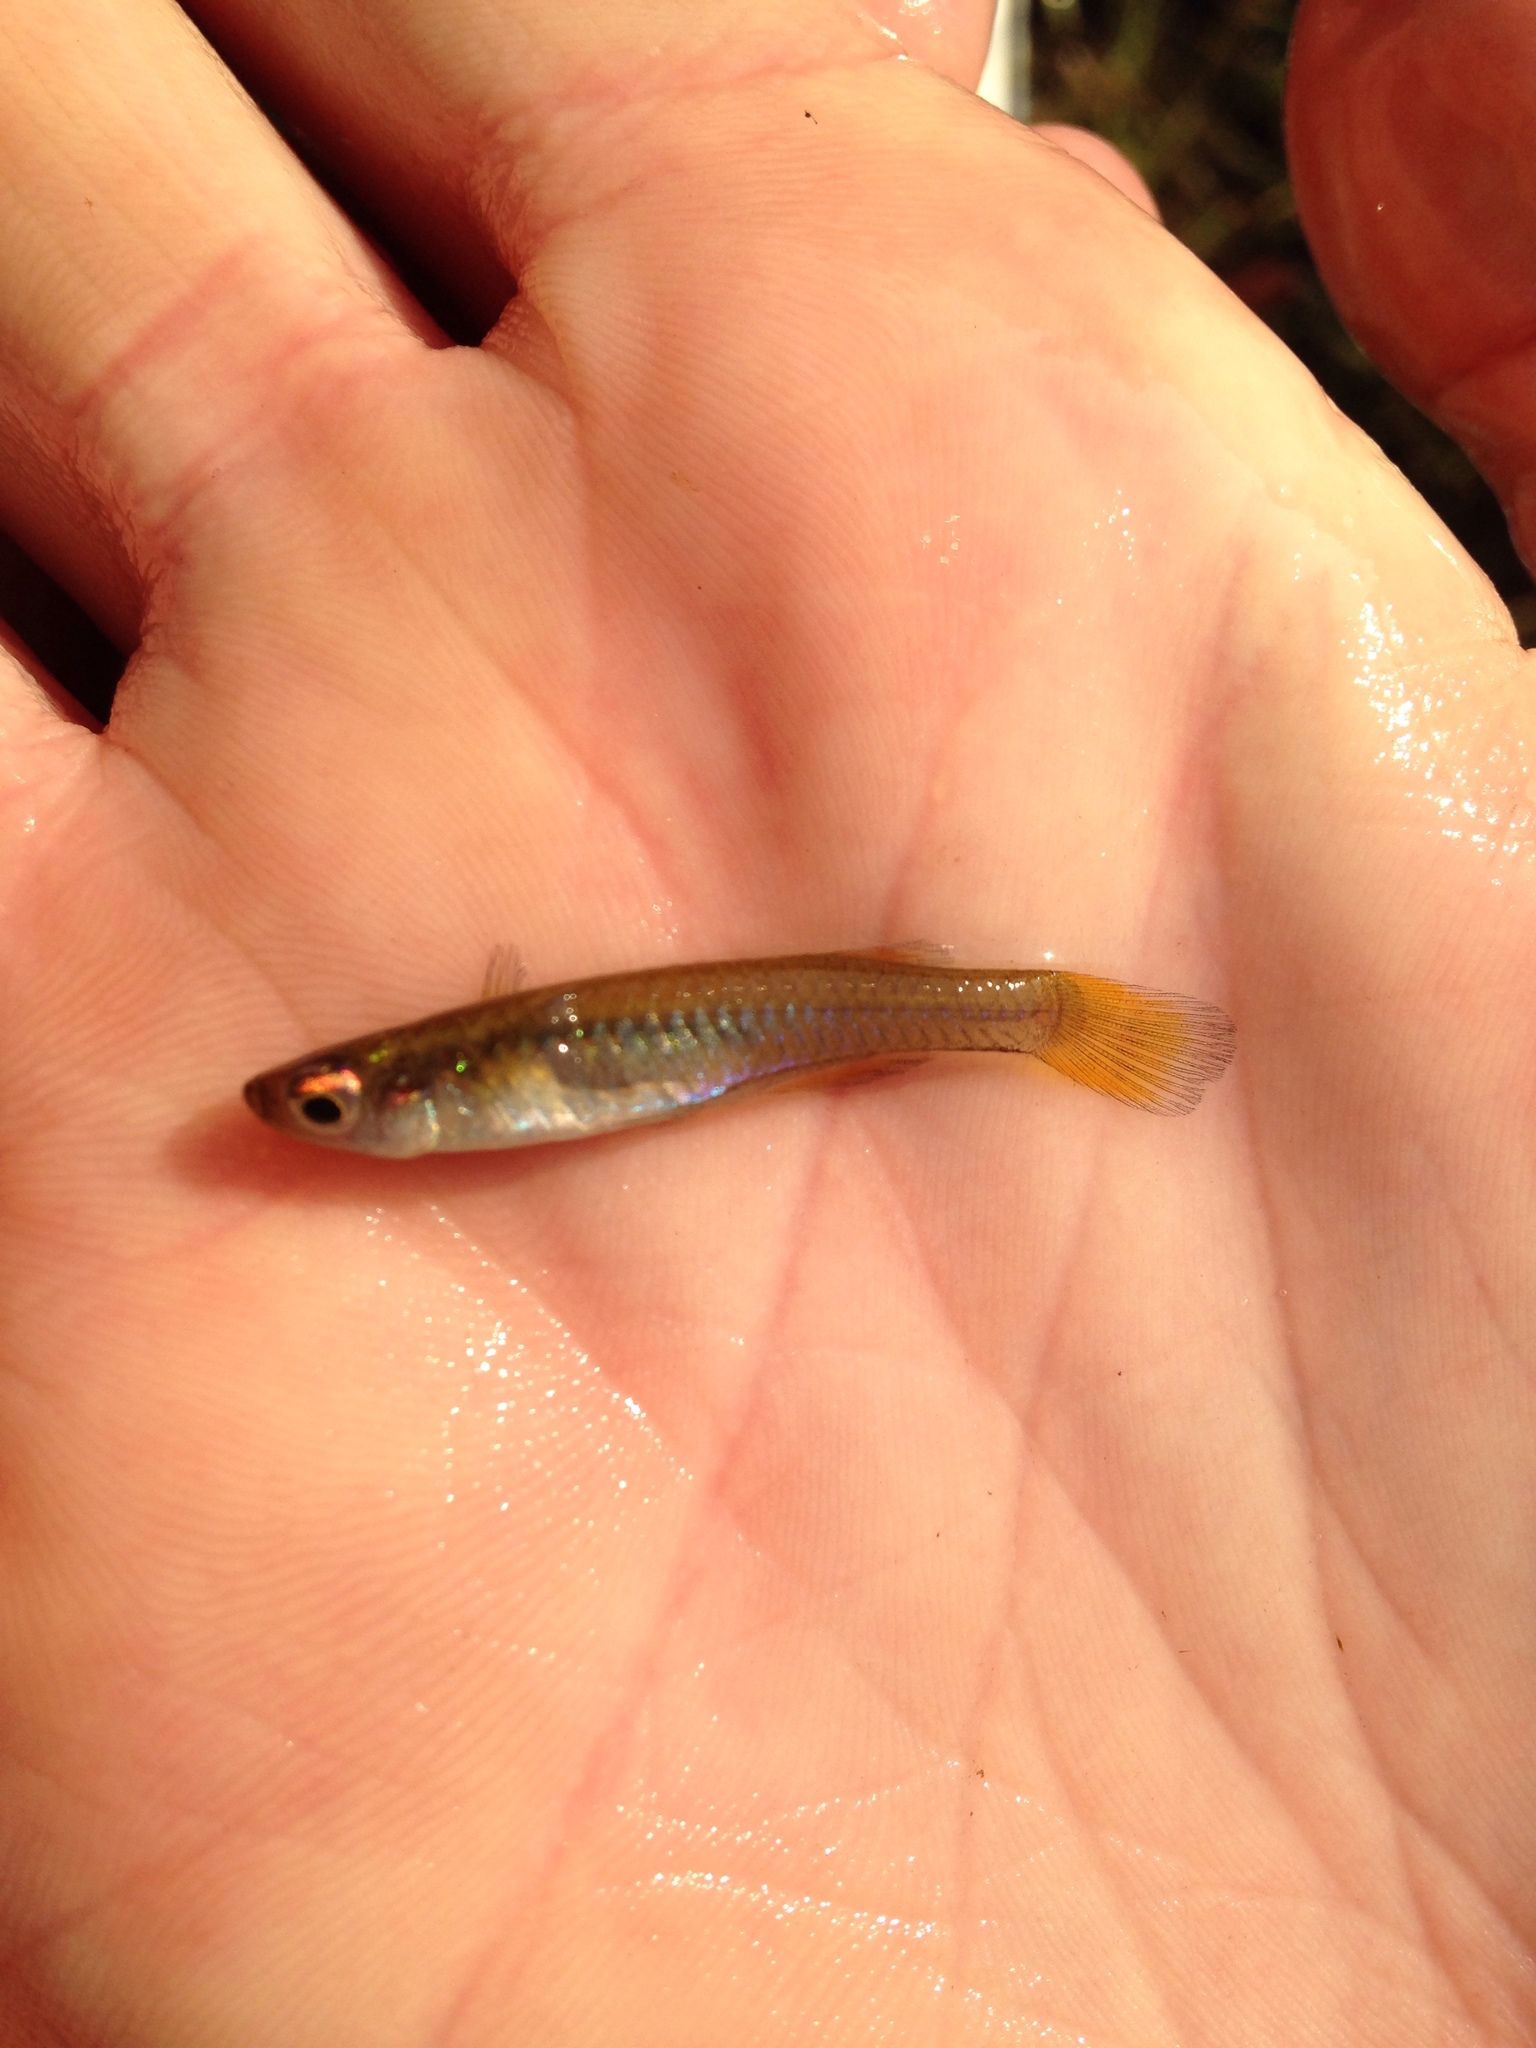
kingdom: Animalia
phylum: Chordata
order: Cyprinodontiformes
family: Poeciliidae
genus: Micropanchax
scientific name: Micropanchax johnstoni
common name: Johnston's topminnow
